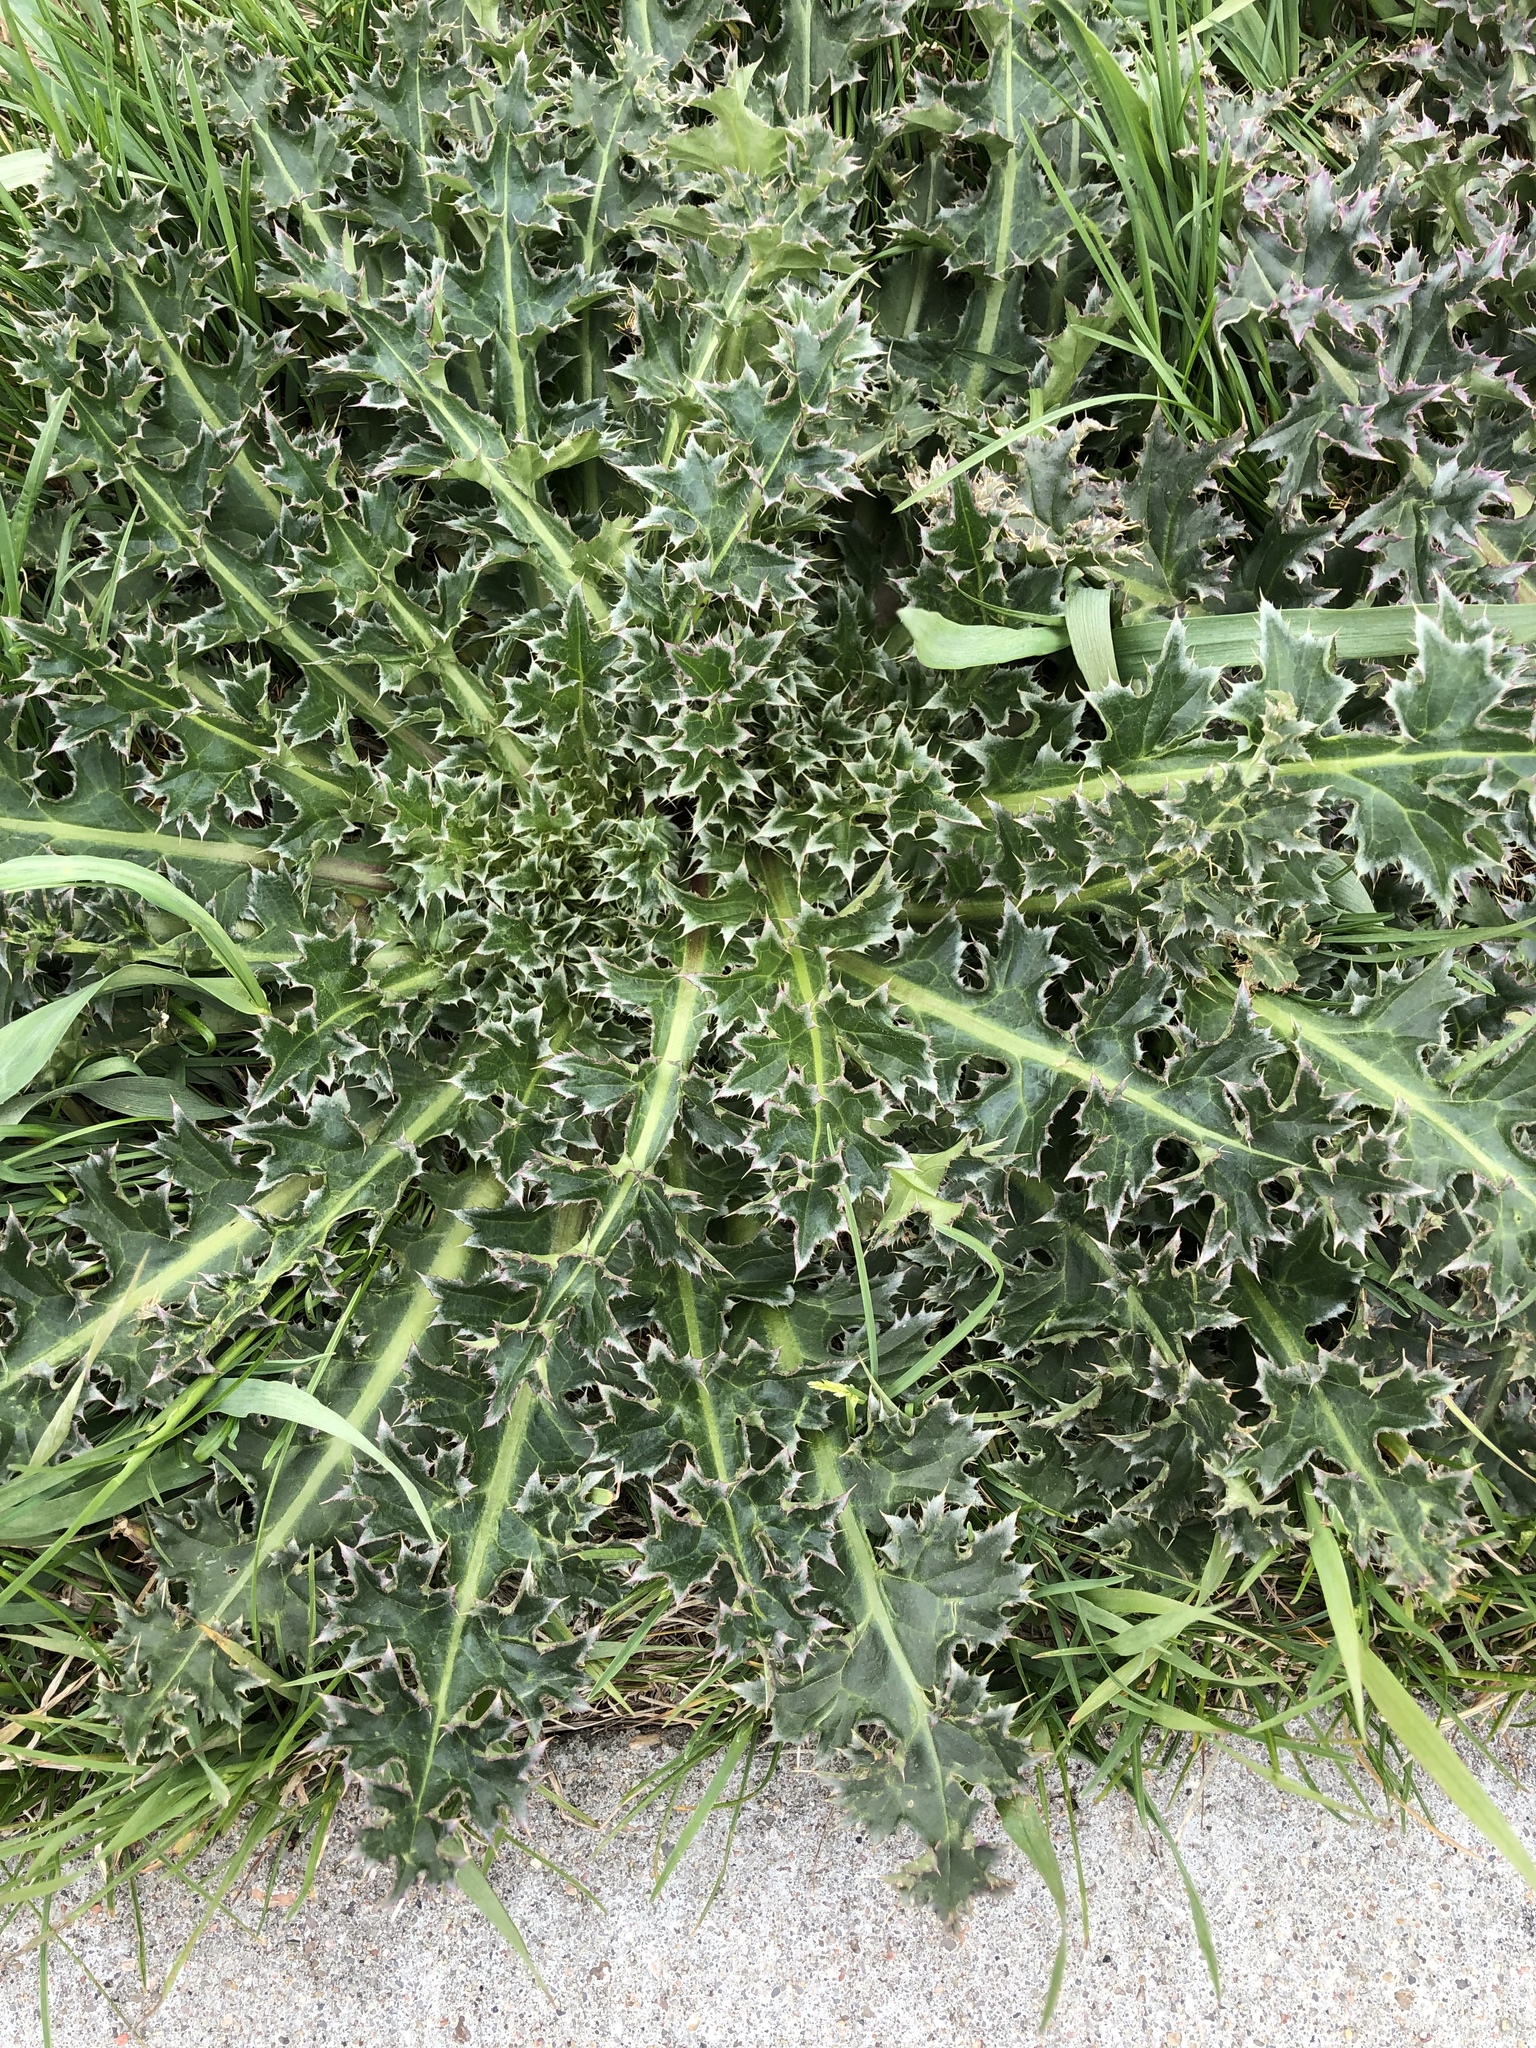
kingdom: Plantae
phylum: Tracheophyta
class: Magnoliopsida
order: Asterales
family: Asteraceae
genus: Carduus
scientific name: Carduus nutans
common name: Musk thistle
